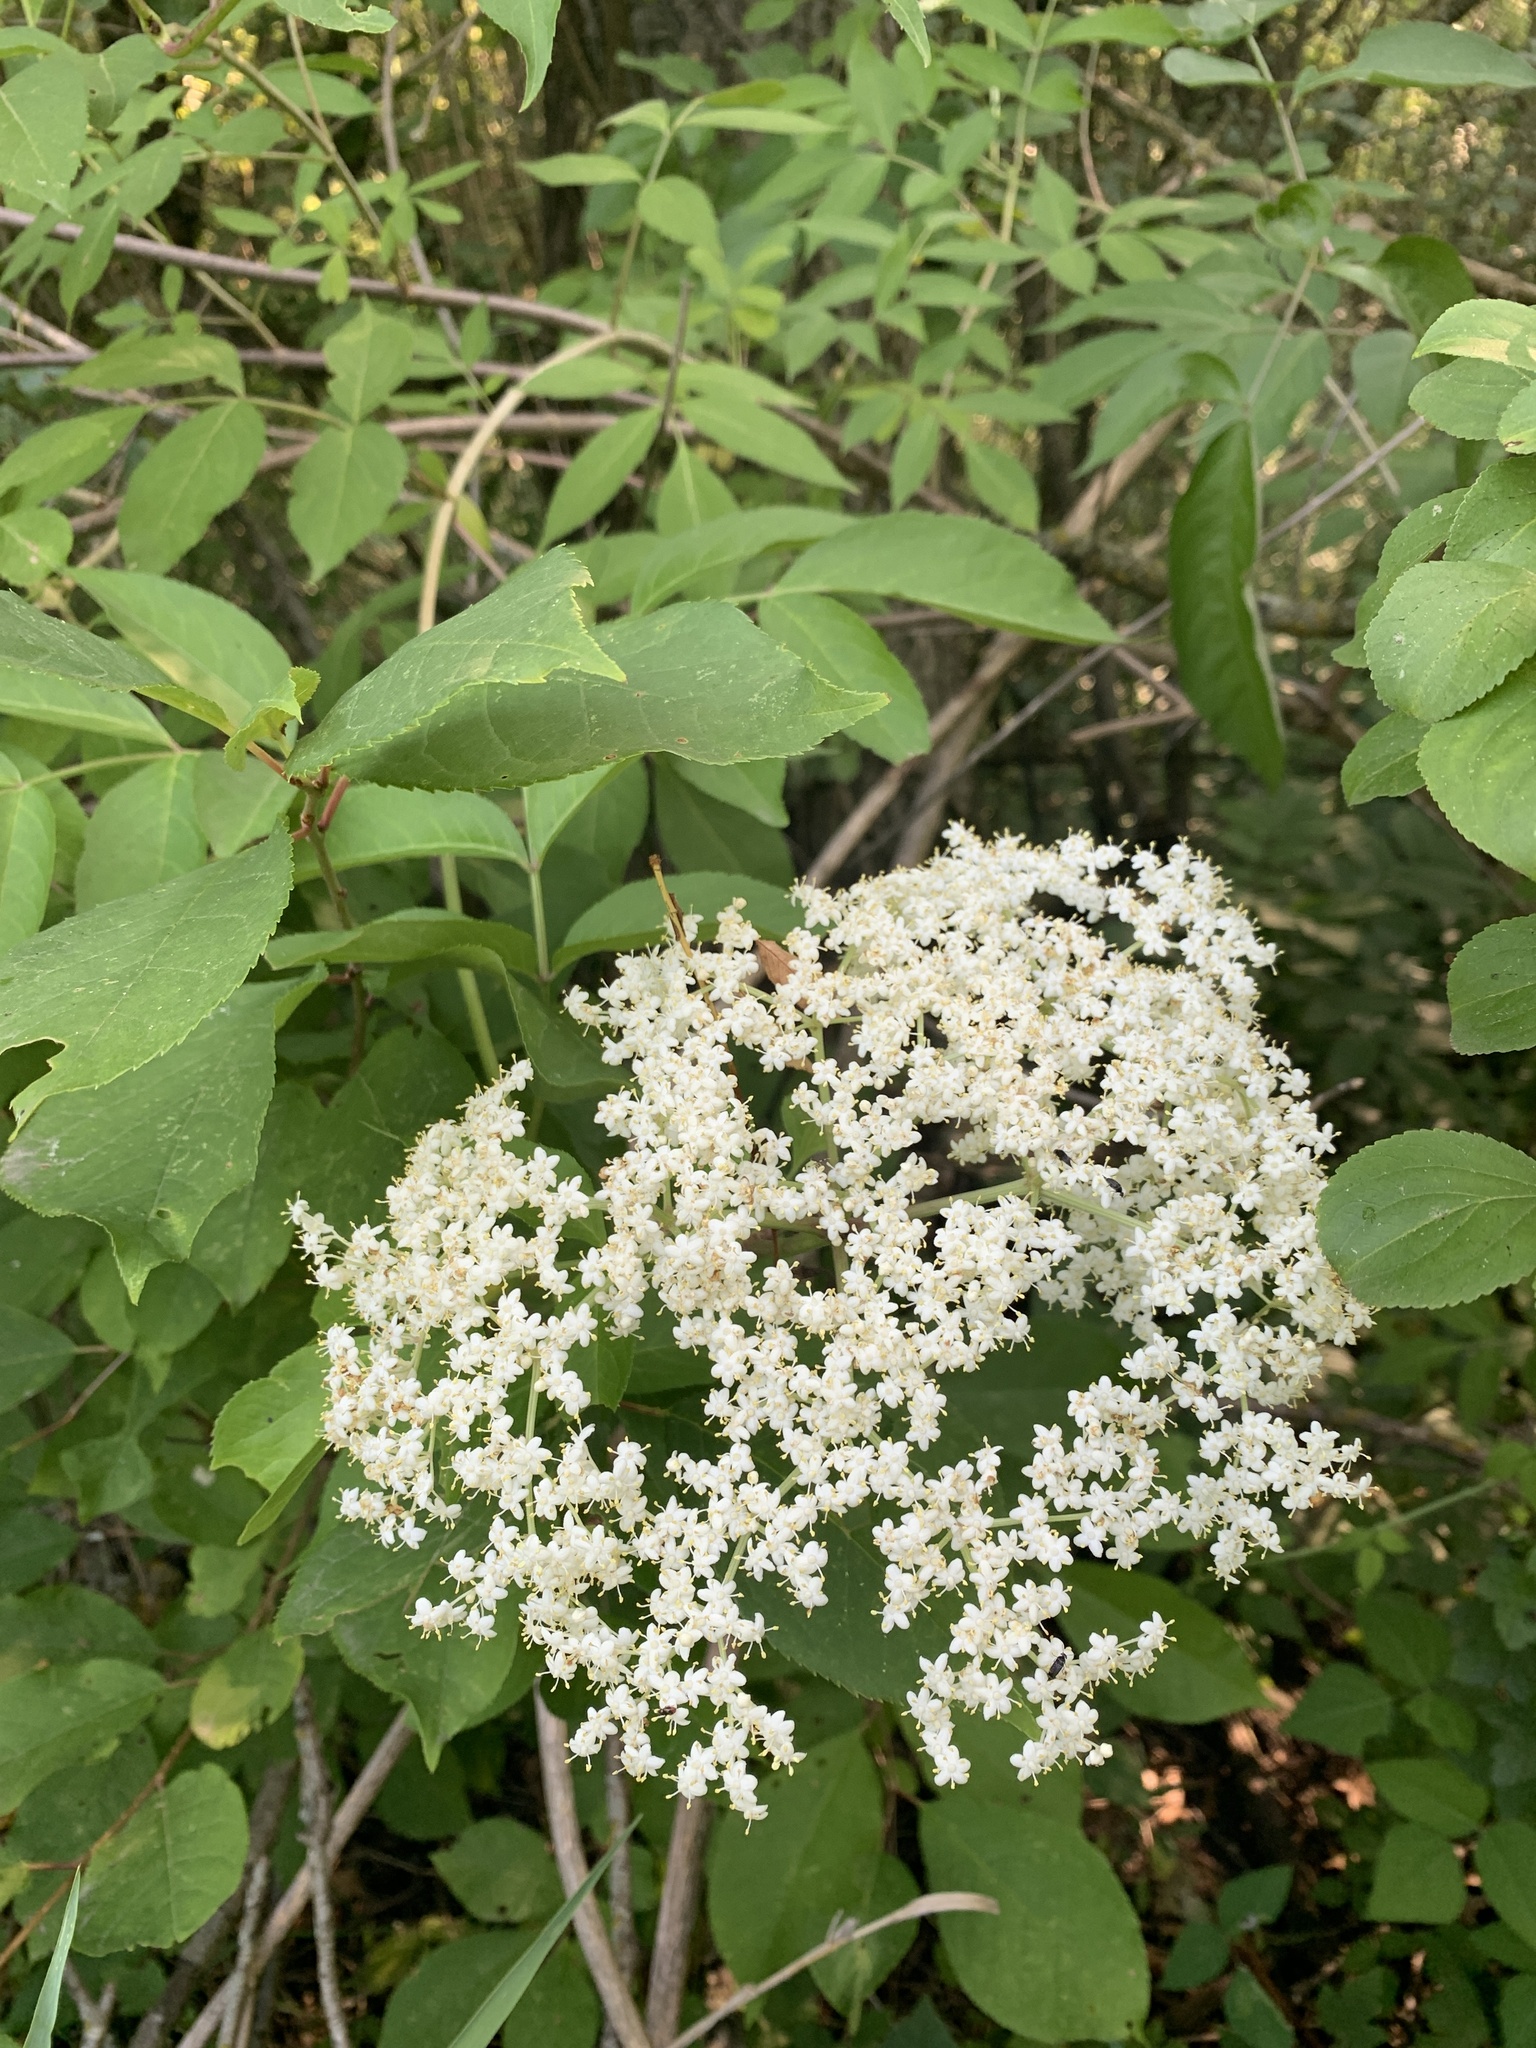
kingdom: Plantae
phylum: Tracheophyta
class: Magnoliopsida
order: Dipsacales
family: Viburnaceae
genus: Sambucus
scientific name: Sambucus canadensis
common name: American elder
